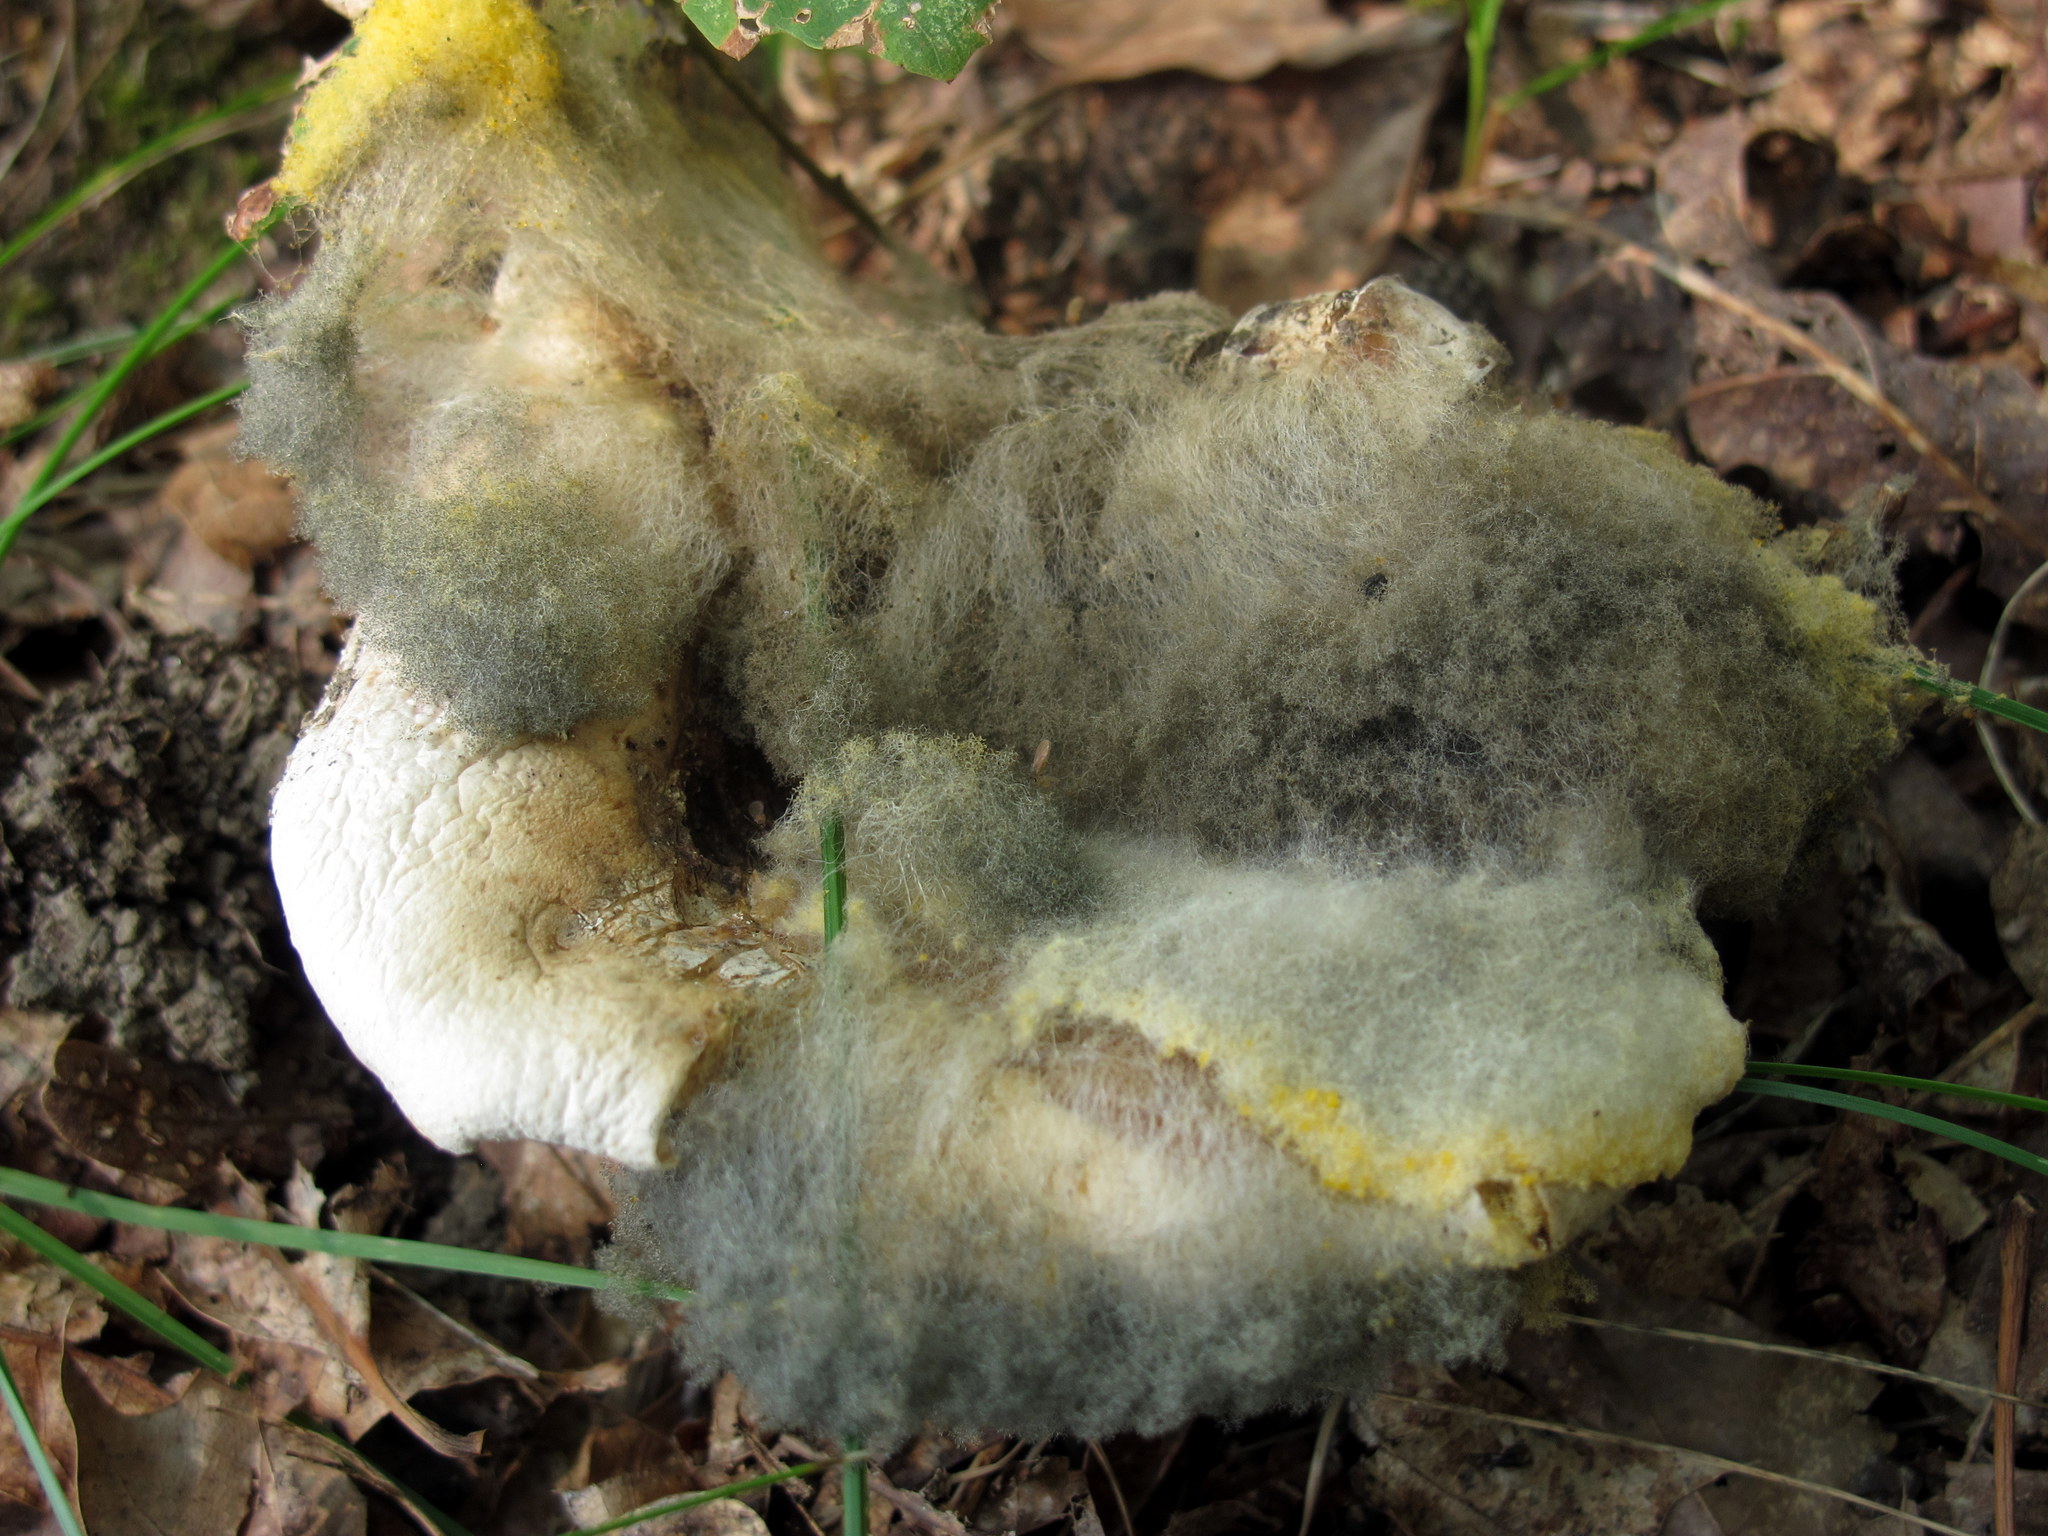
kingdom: Fungi
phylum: Mucoromycota
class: Mucoromycetes
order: Mucorales
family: Rhizopodaceae
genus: Syzygites
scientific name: Syzygites megalocarpus
